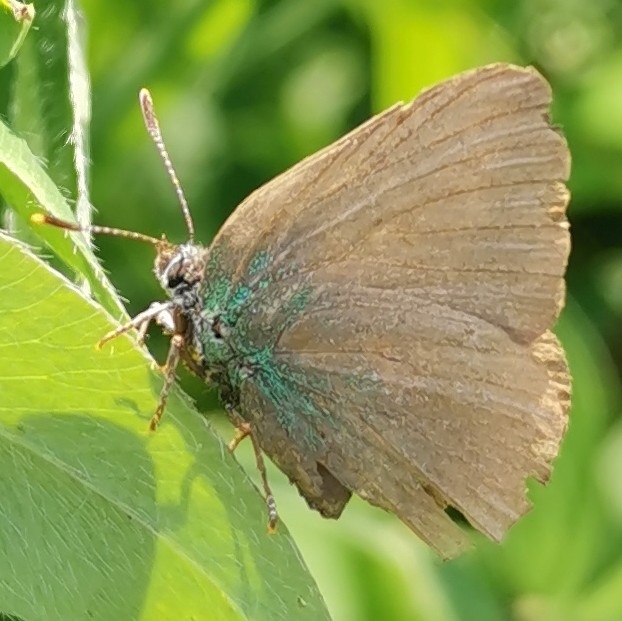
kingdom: Animalia
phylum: Arthropoda
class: Insecta
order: Lepidoptera
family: Lycaenidae
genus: Callophrys
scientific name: Callophrys rubi
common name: Green hairstreak
